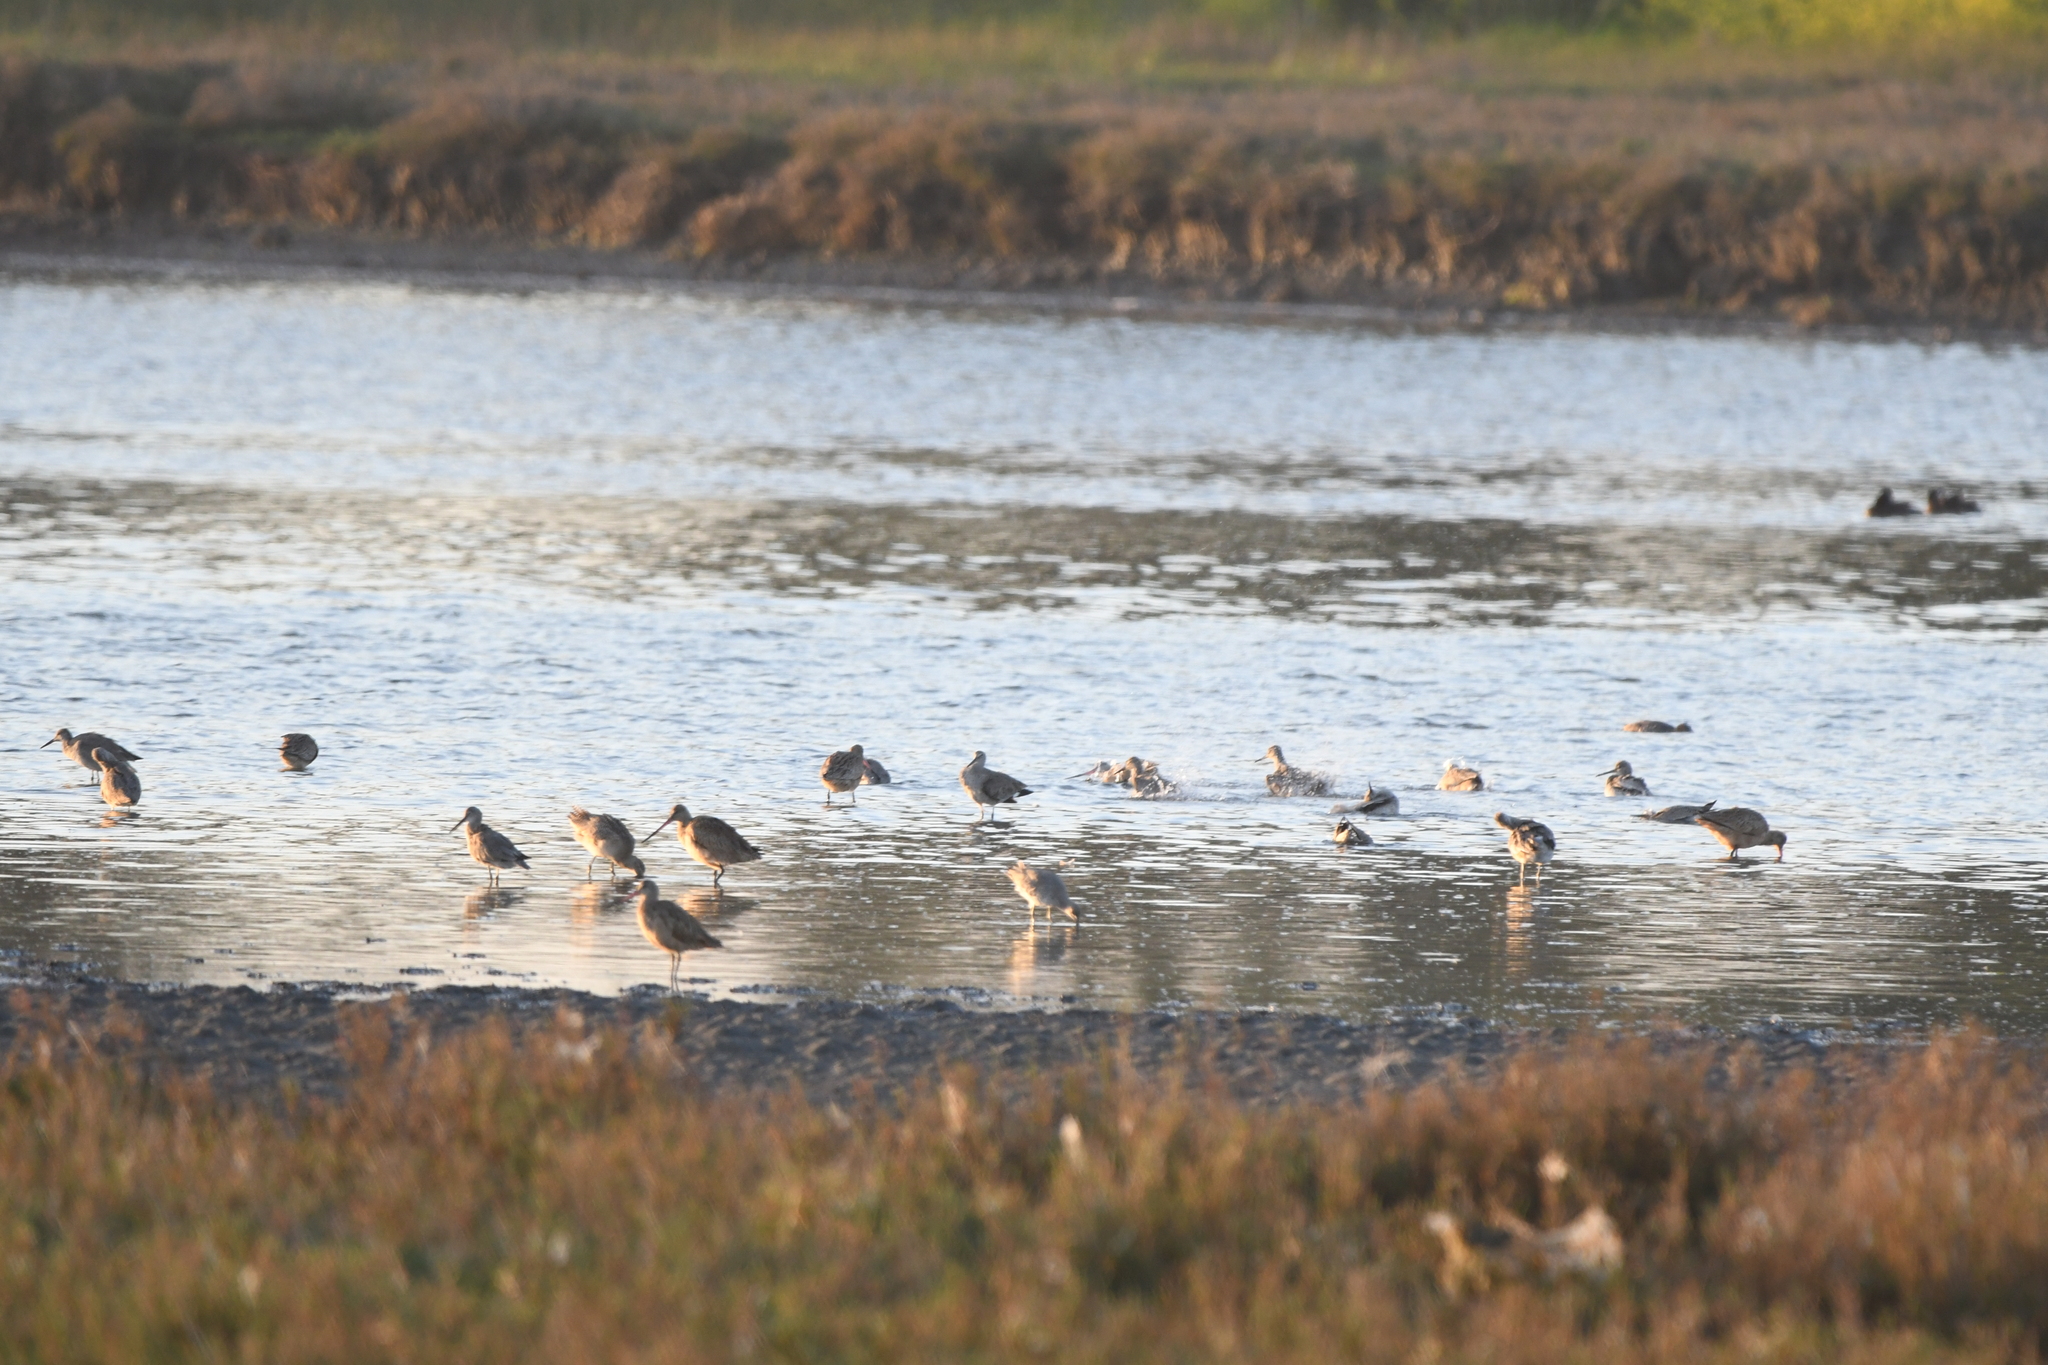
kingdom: Animalia
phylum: Chordata
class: Aves
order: Charadriiformes
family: Scolopacidae
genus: Limosa
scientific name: Limosa fedoa
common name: Marbled godwit
